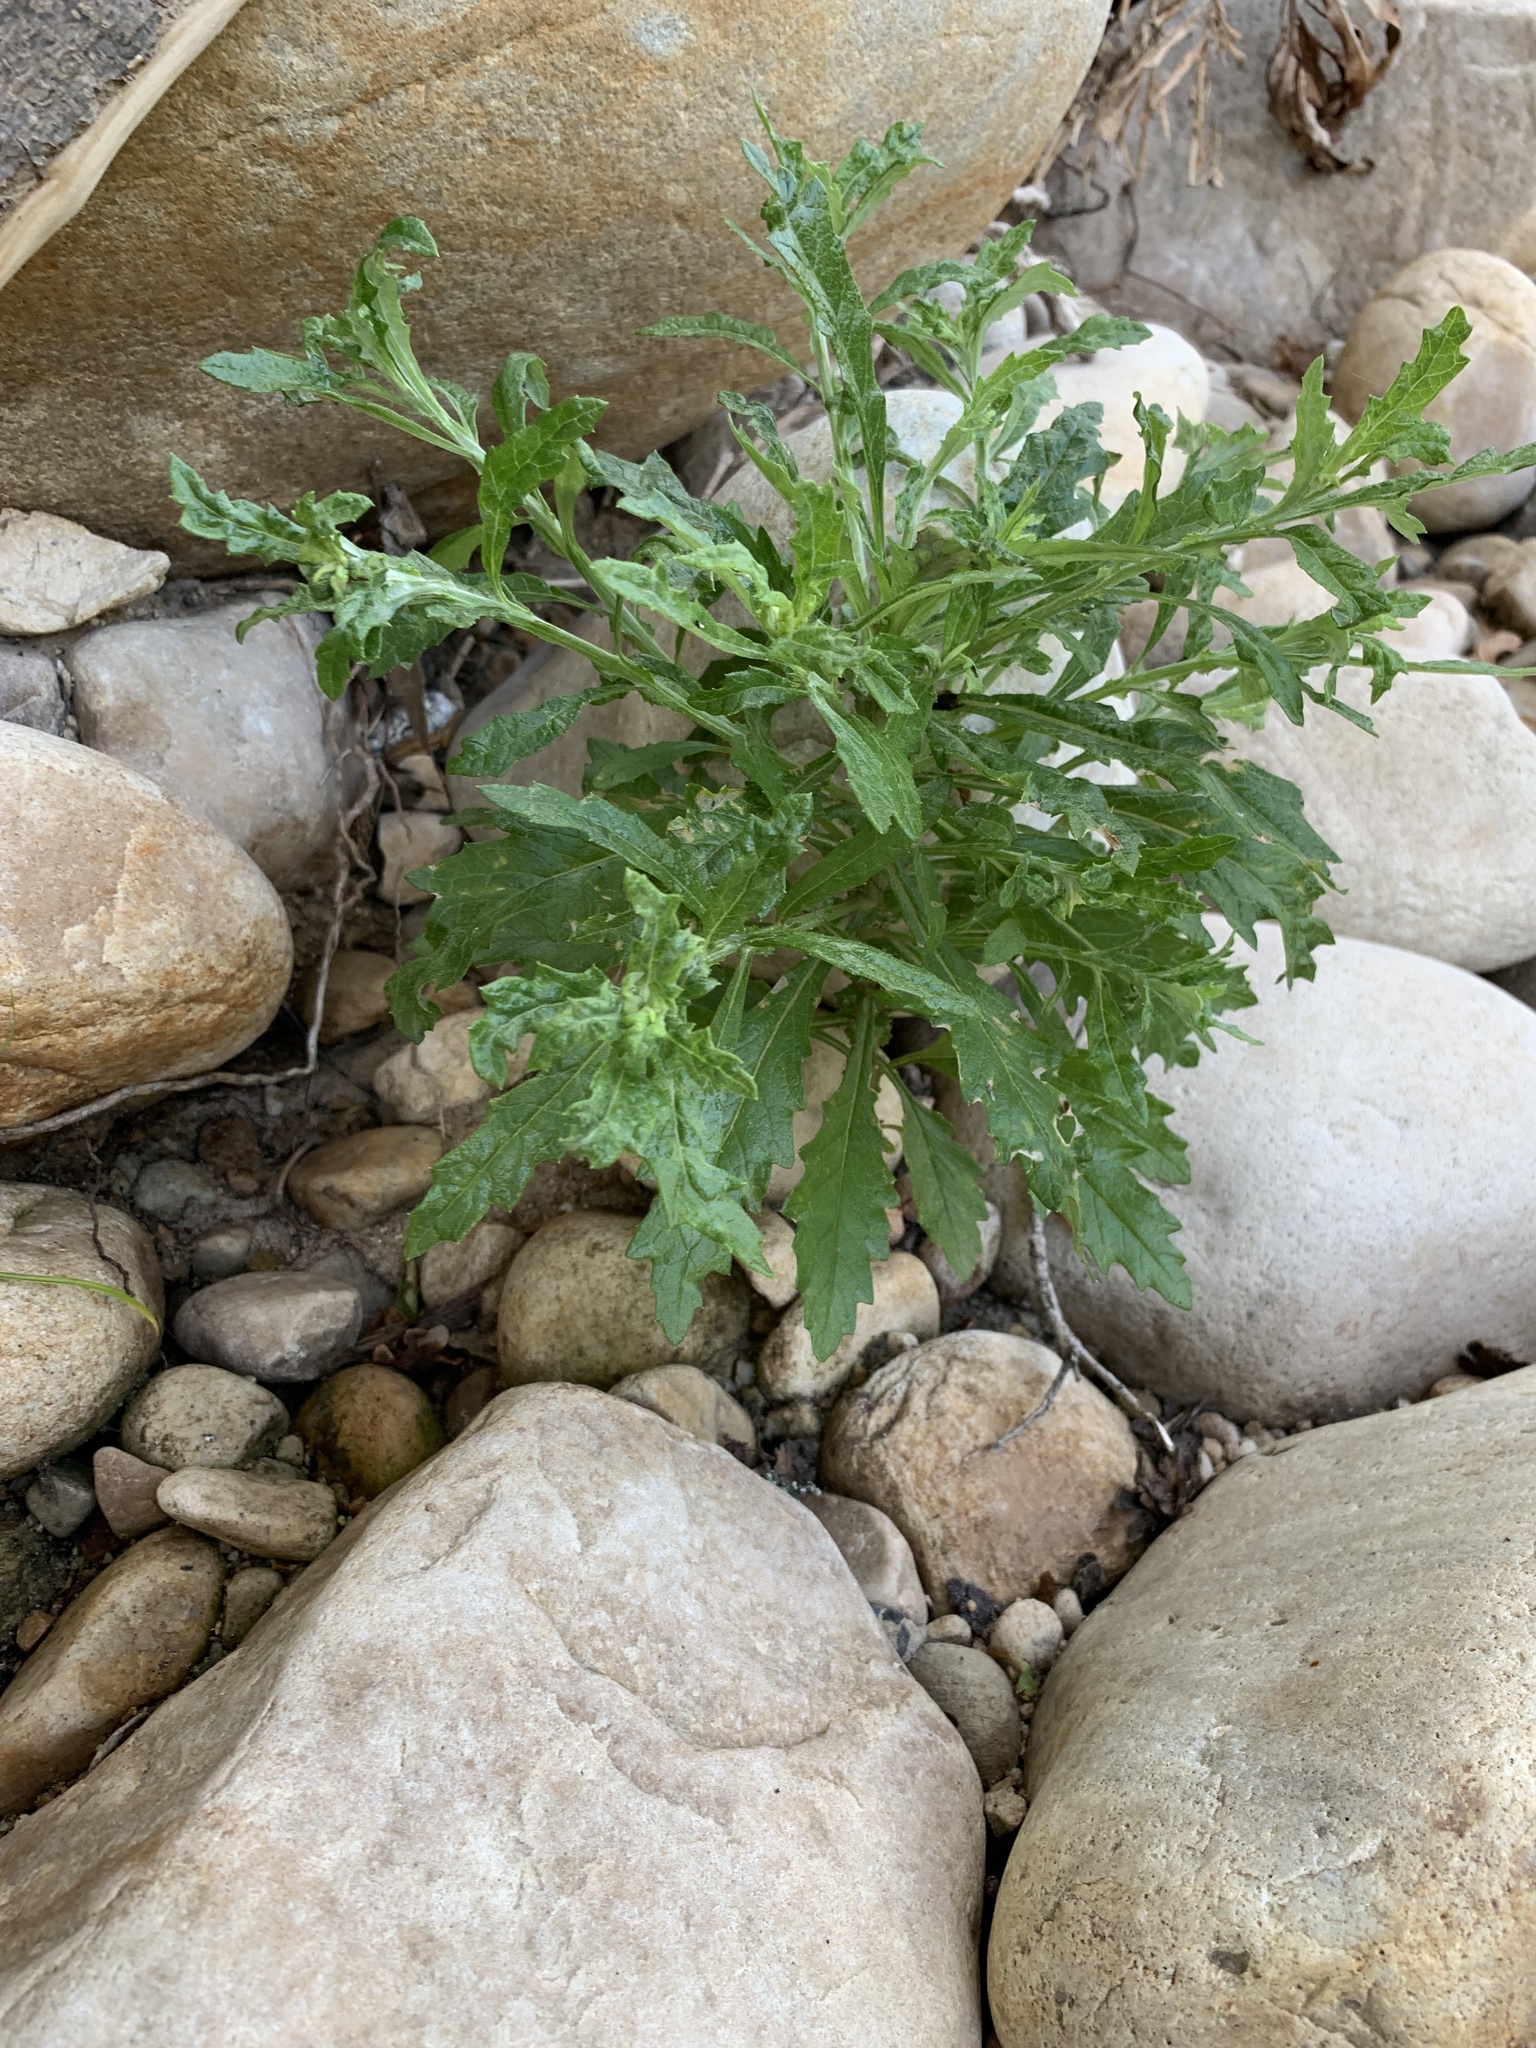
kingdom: Plantae
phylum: Tracheophyta
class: Magnoliopsida
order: Asterales
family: Asteraceae
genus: Senecio
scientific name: Senecio pterophorus
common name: Shoddy ragwort
